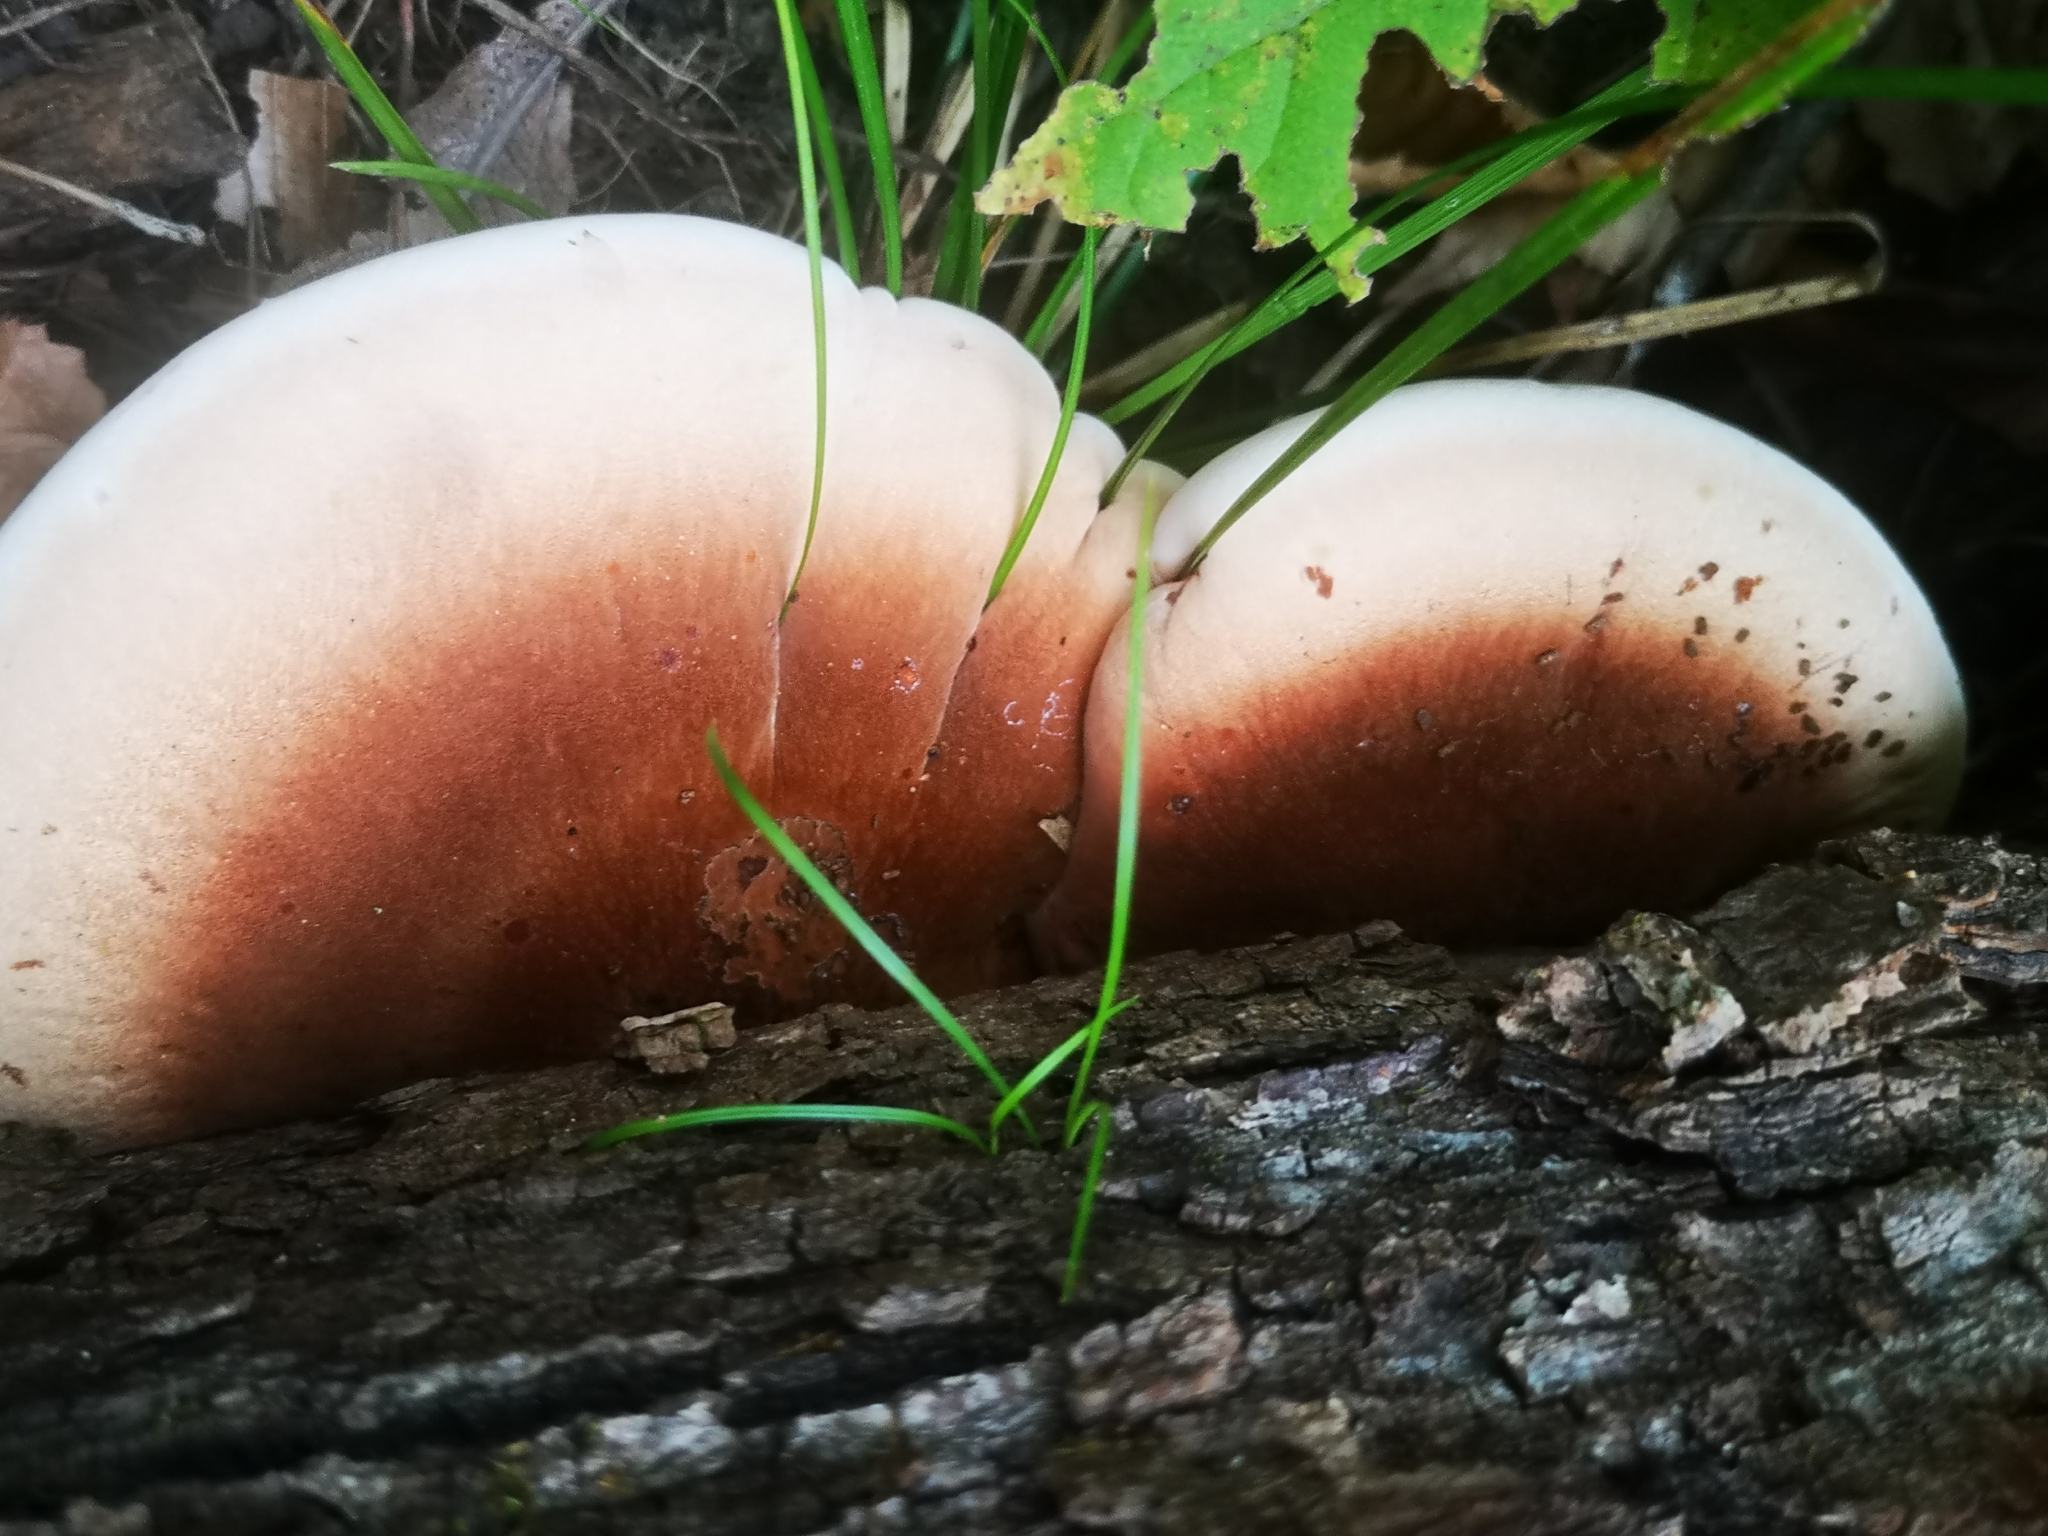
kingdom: Fungi
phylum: Basidiomycota
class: Agaricomycetes
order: Polyporales
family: Ischnodermataceae
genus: Ischnoderma
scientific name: Ischnoderma resinosum
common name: Resinous polypore
